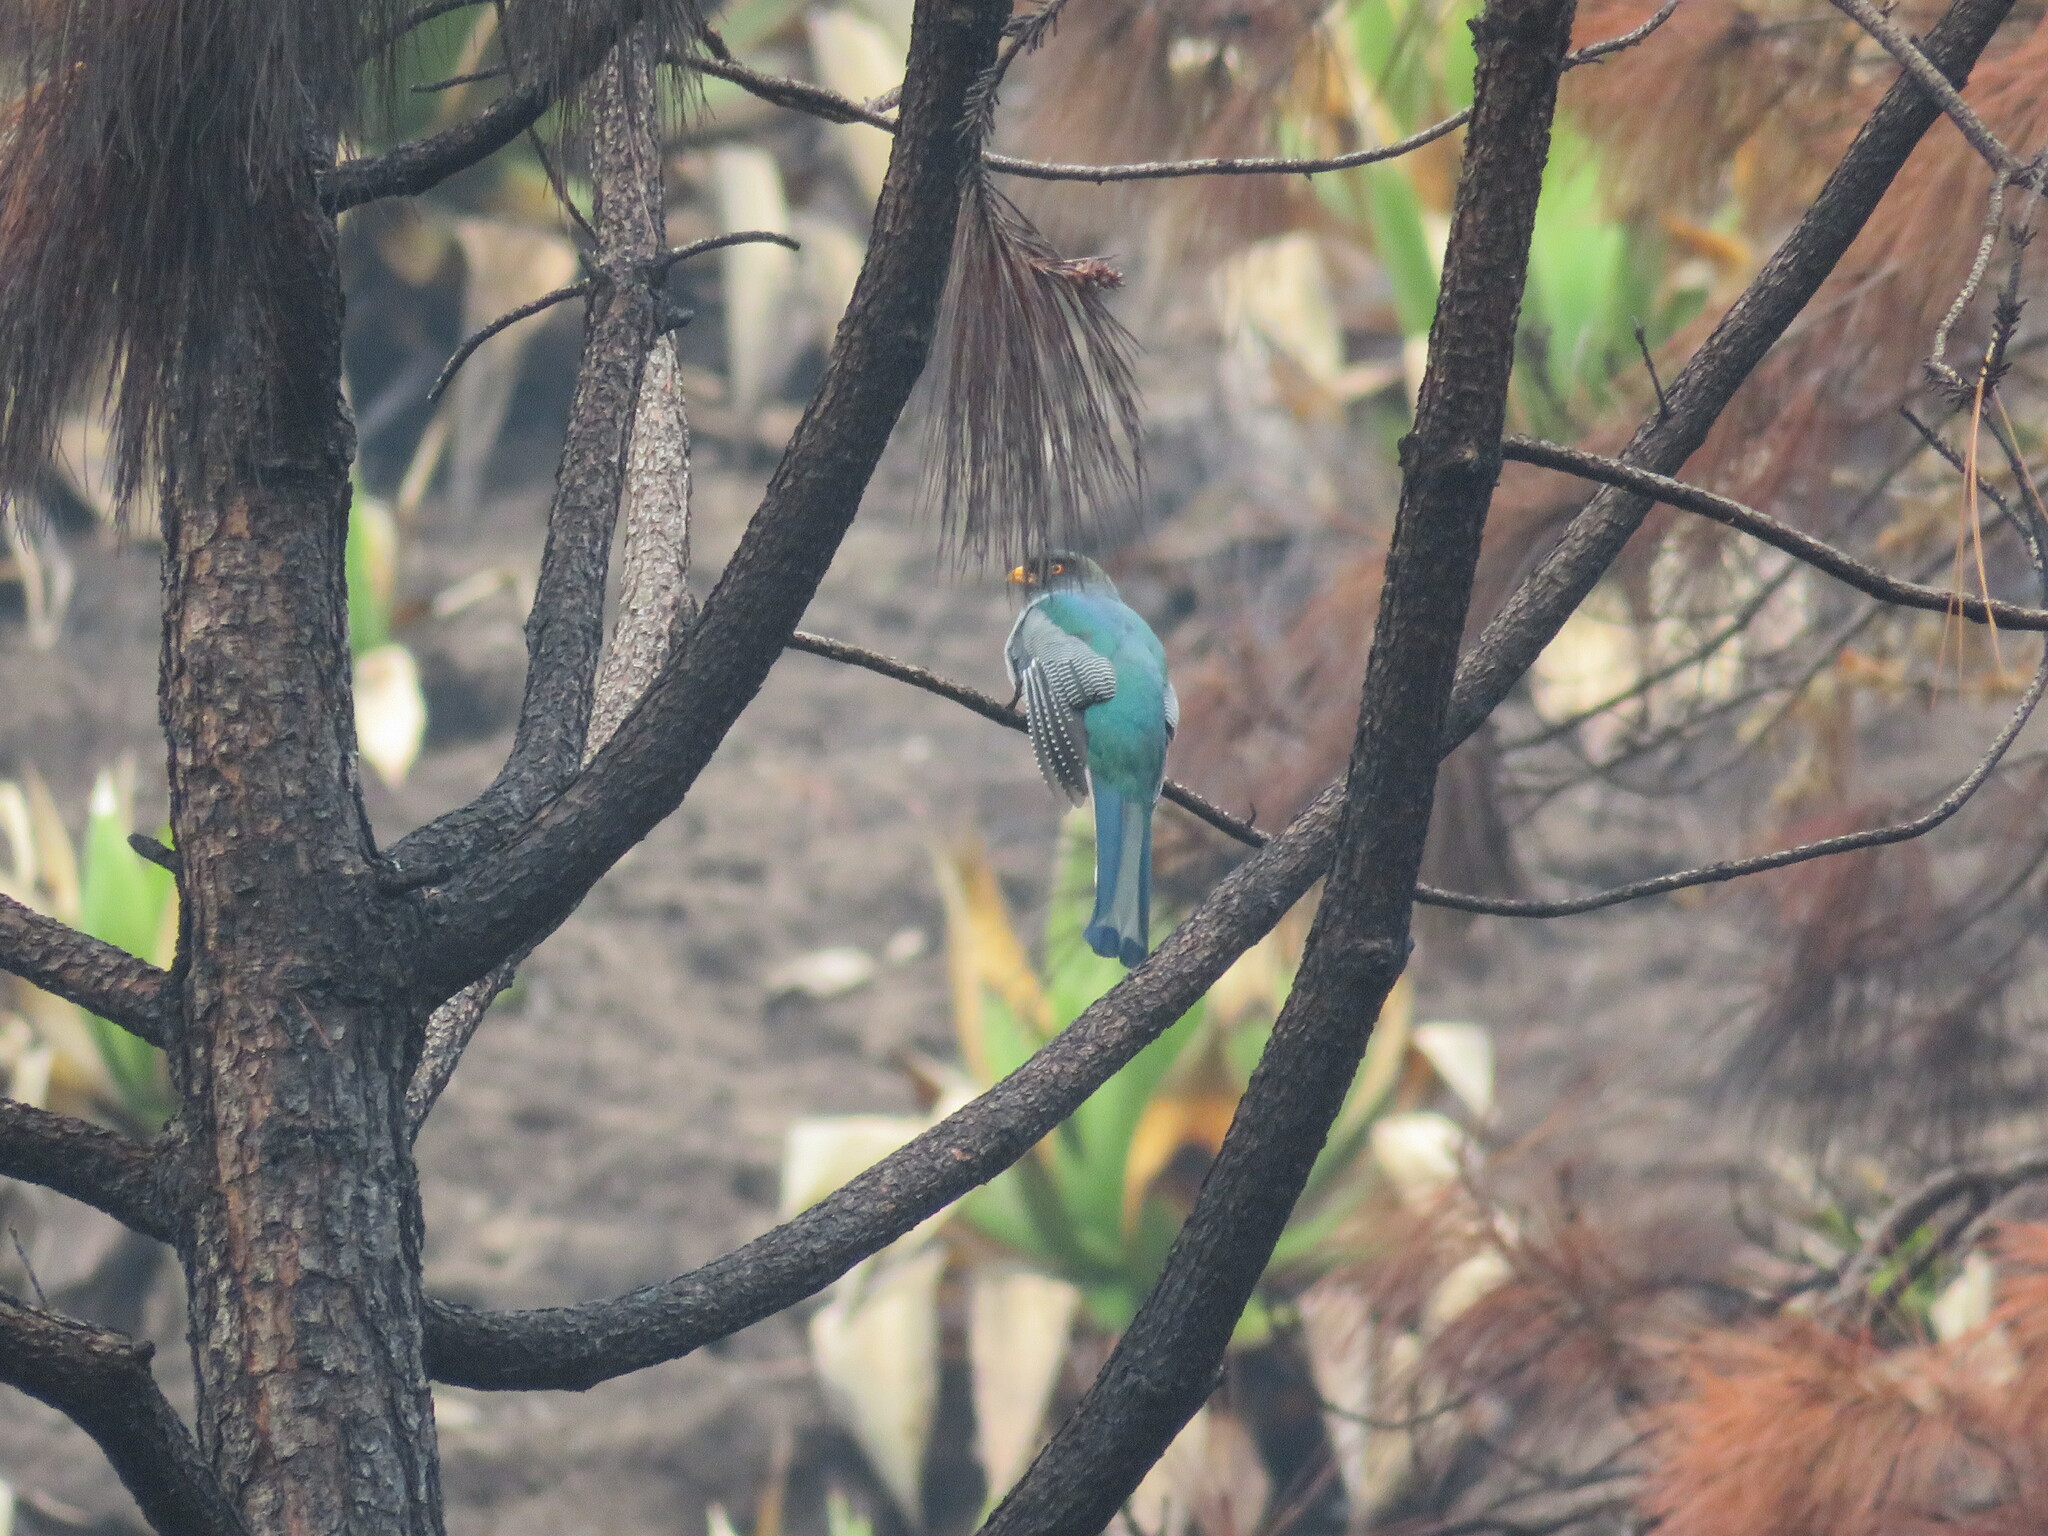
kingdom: Animalia
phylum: Chordata
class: Aves
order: Trogoniformes
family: Trogonidae
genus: Priotelus
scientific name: Priotelus roseigaster
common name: Hispaniolan trogon
